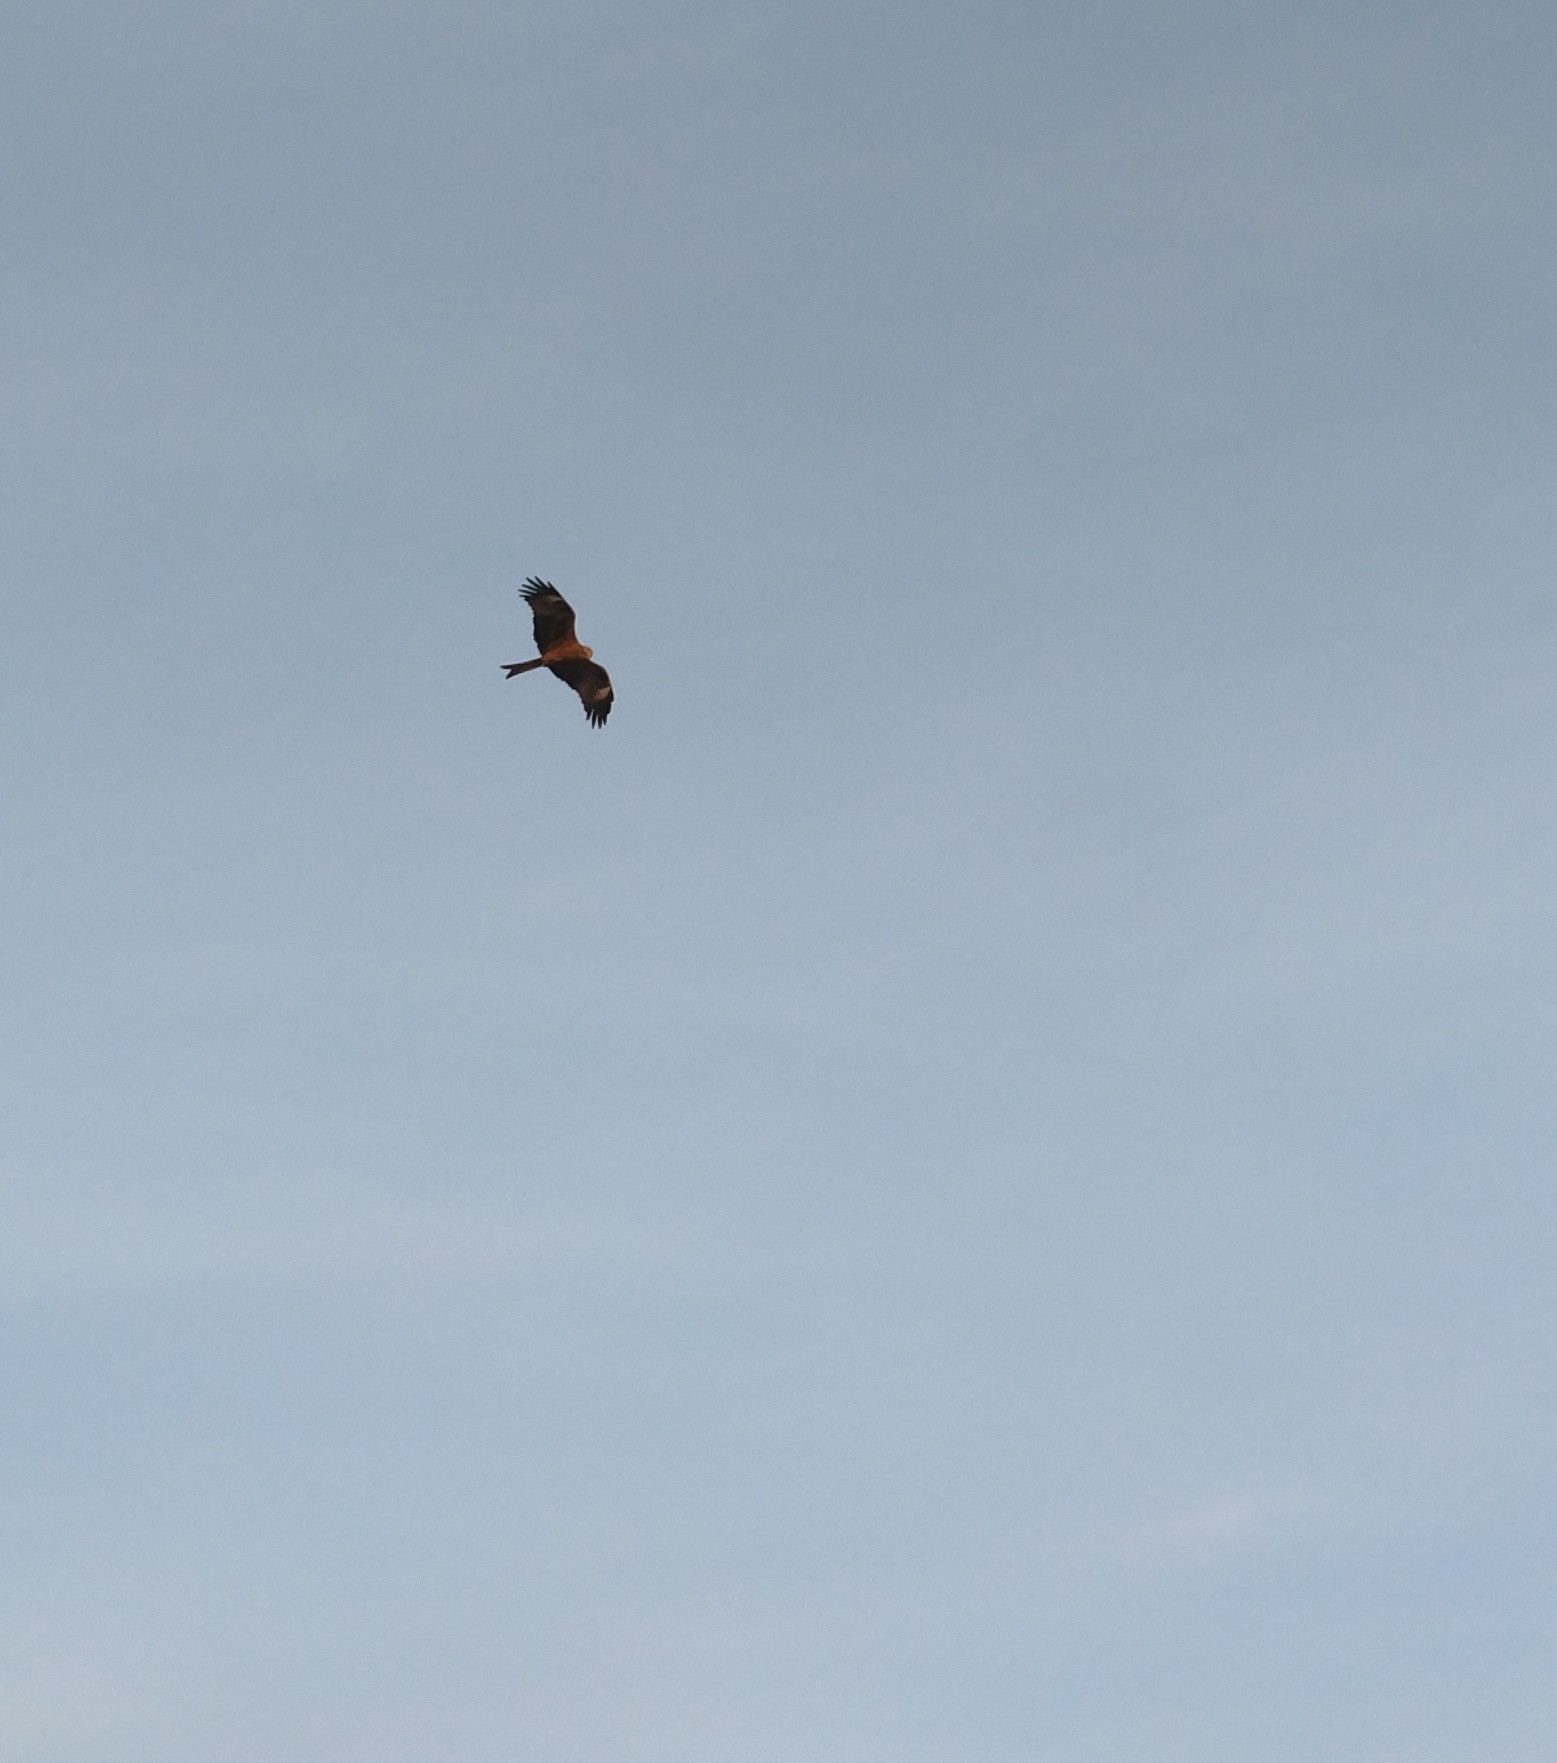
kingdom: Animalia
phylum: Chordata
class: Aves
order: Accipitriformes
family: Accipitridae
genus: Milvus
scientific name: Milvus migrans
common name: Black kite
